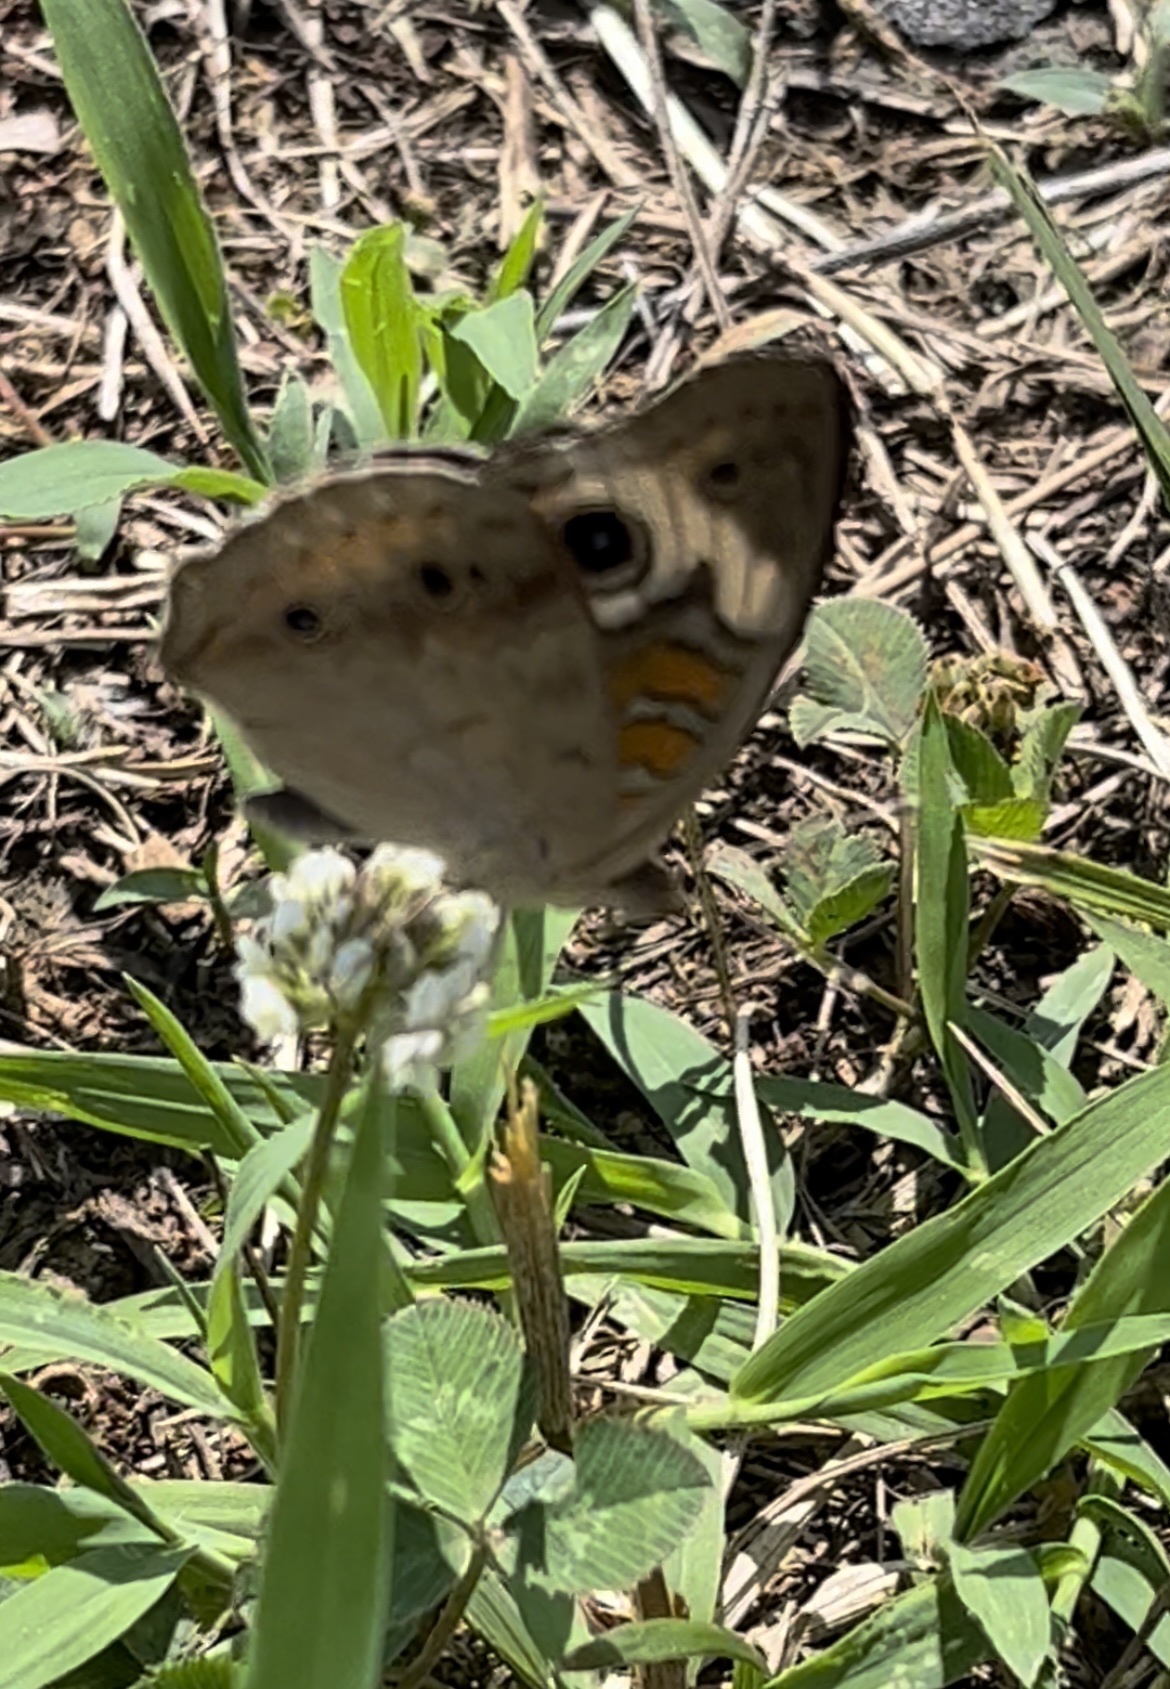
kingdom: Animalia
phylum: Arthropoda
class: Insecta
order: Lepidoptera
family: Nymphalidae
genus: Junonia
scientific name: Junonia coenia
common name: Common buckeye
